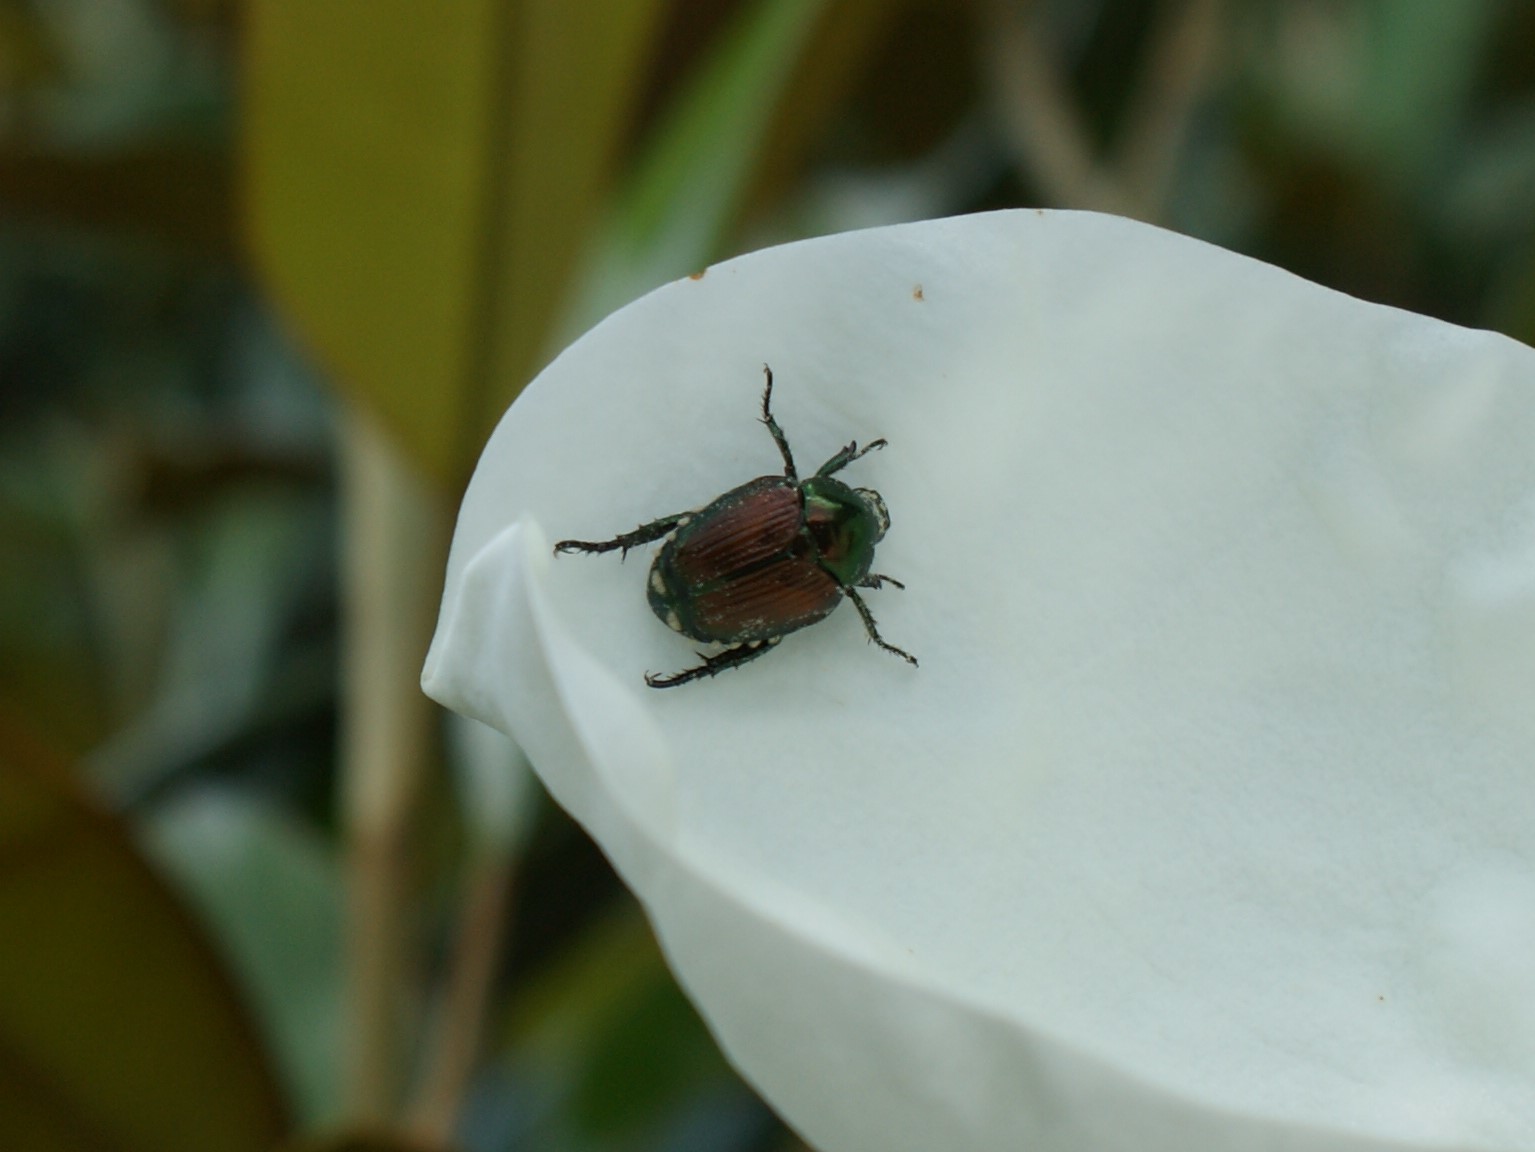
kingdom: Animalia
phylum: Arthropoda
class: Insecta
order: Coleoptera
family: Scarabaeidae
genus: Popillia
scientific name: Popillia japonica
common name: Japanese beetle
